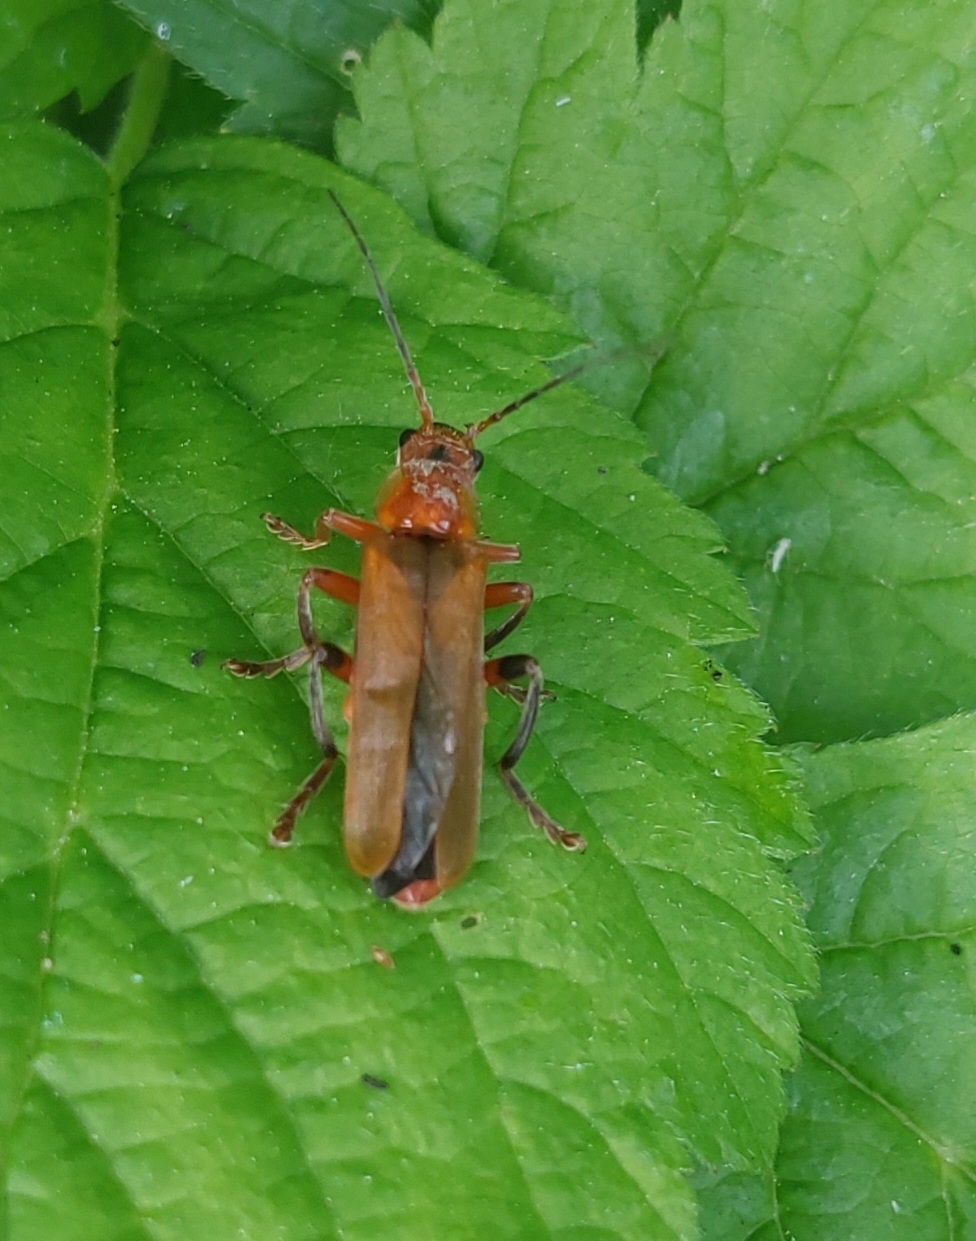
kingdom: Animalia
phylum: Arthropoda
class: Insecta
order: Coleoptera
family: Cantharidae
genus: Cantharis
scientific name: Cantharis livida
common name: Livid soldier beetle
